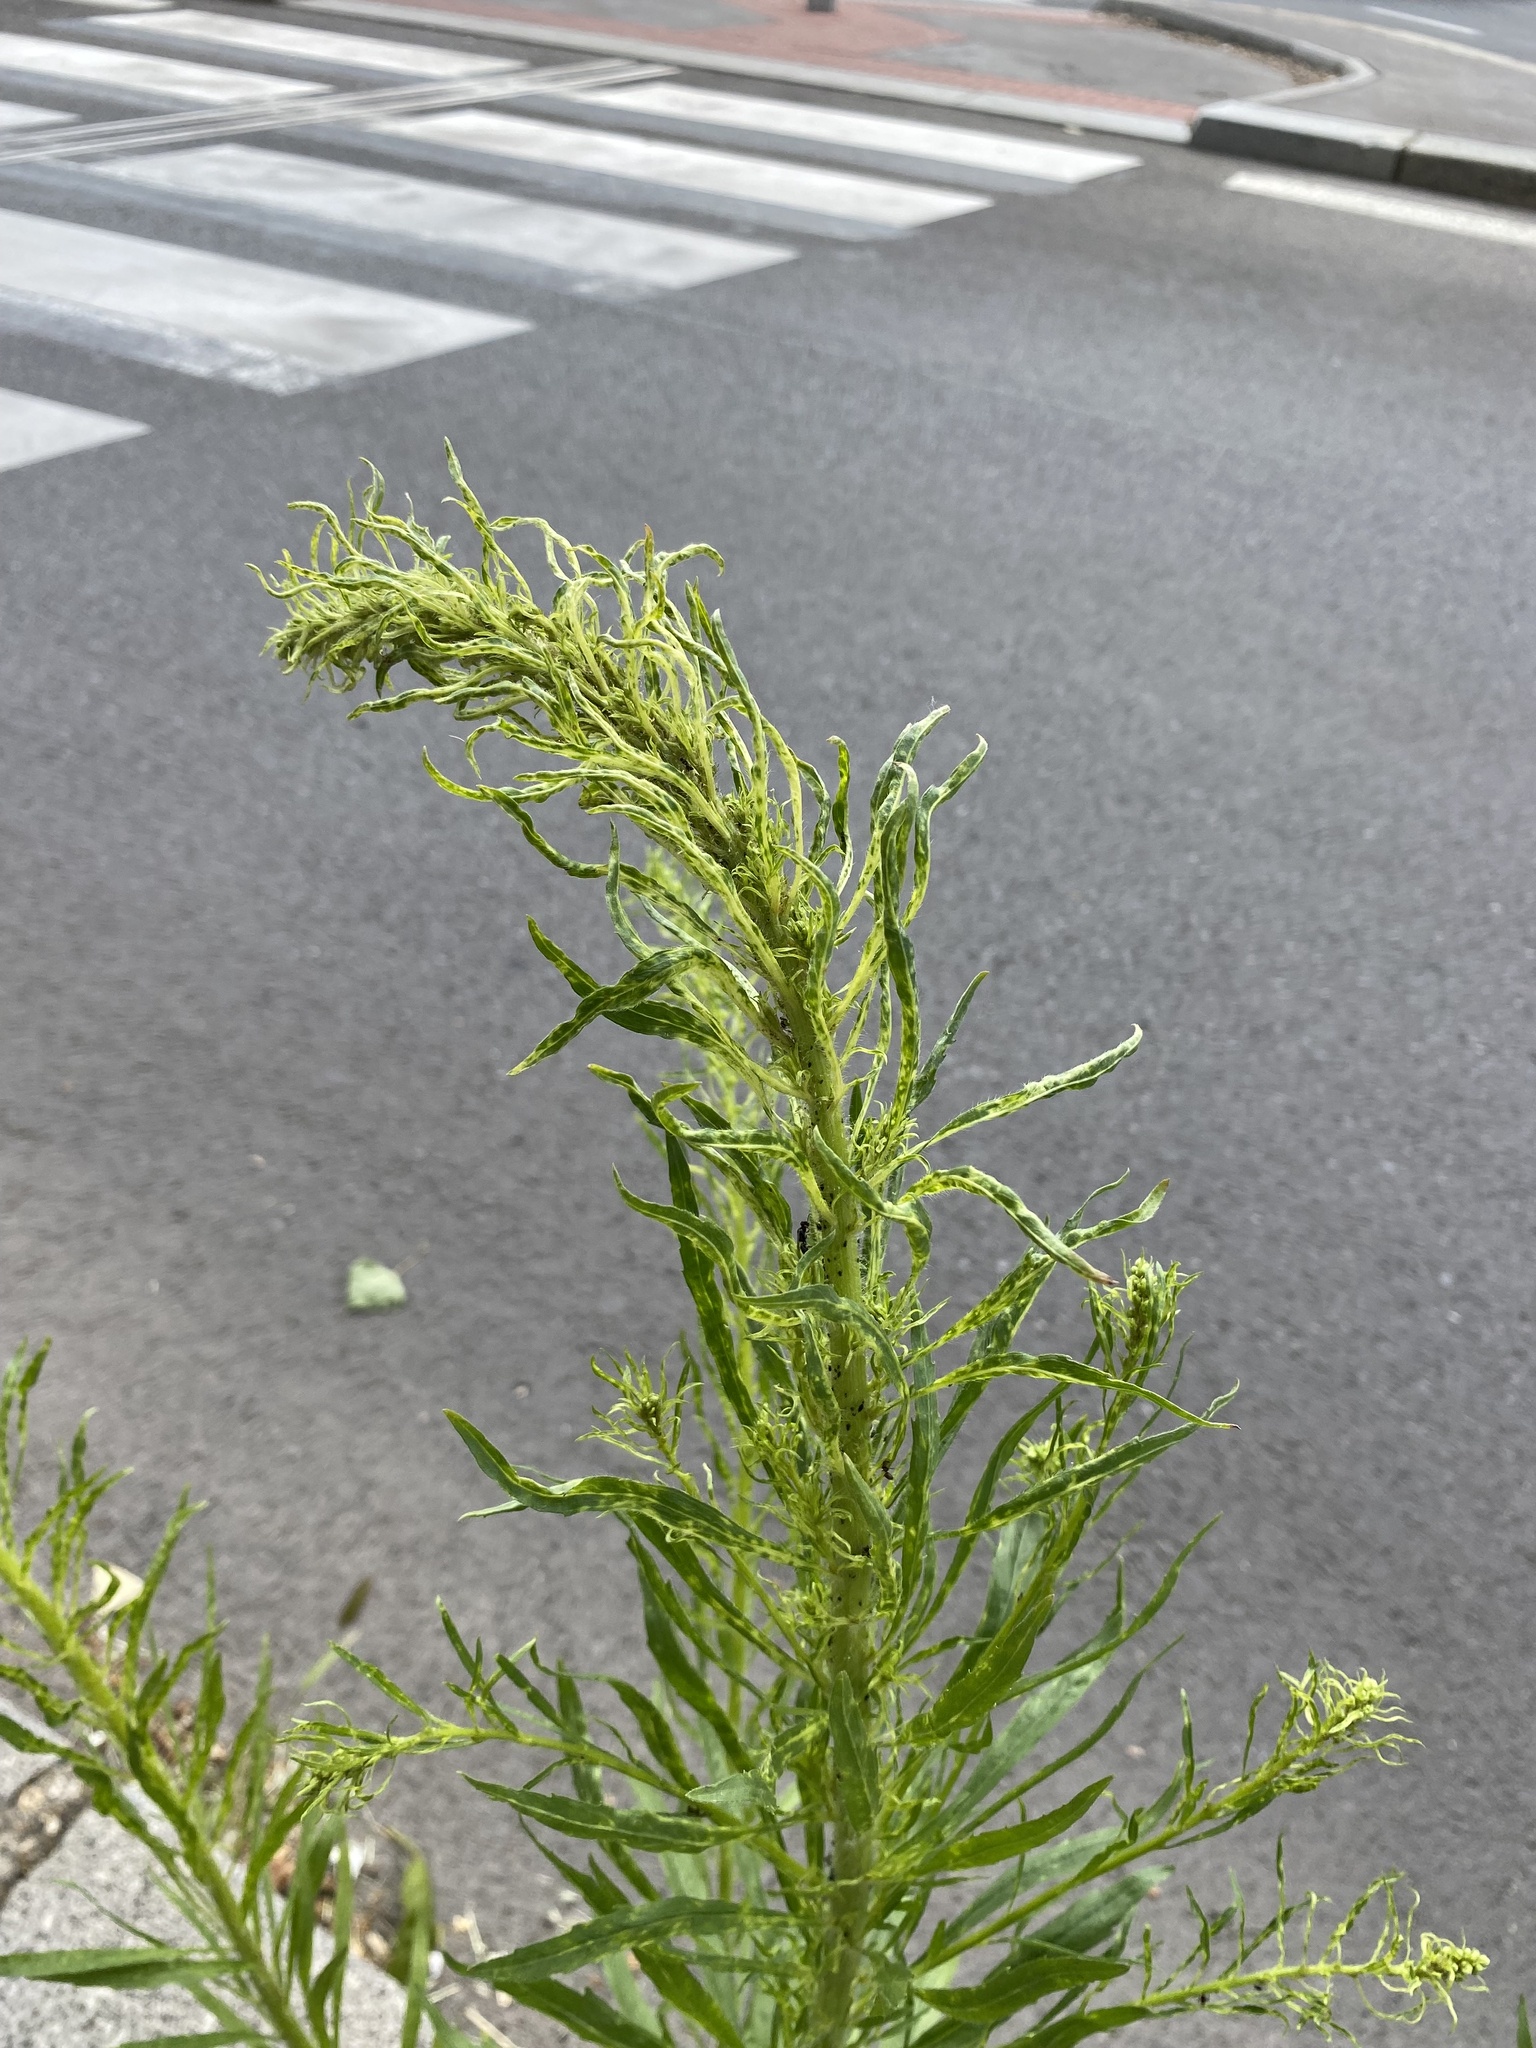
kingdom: Plantae
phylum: Tracheophyta
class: Magnoliopsida
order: Asterales
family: Asteraceae
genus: Erigeron
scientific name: Erigeron canadensis
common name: Canadian fleabane
